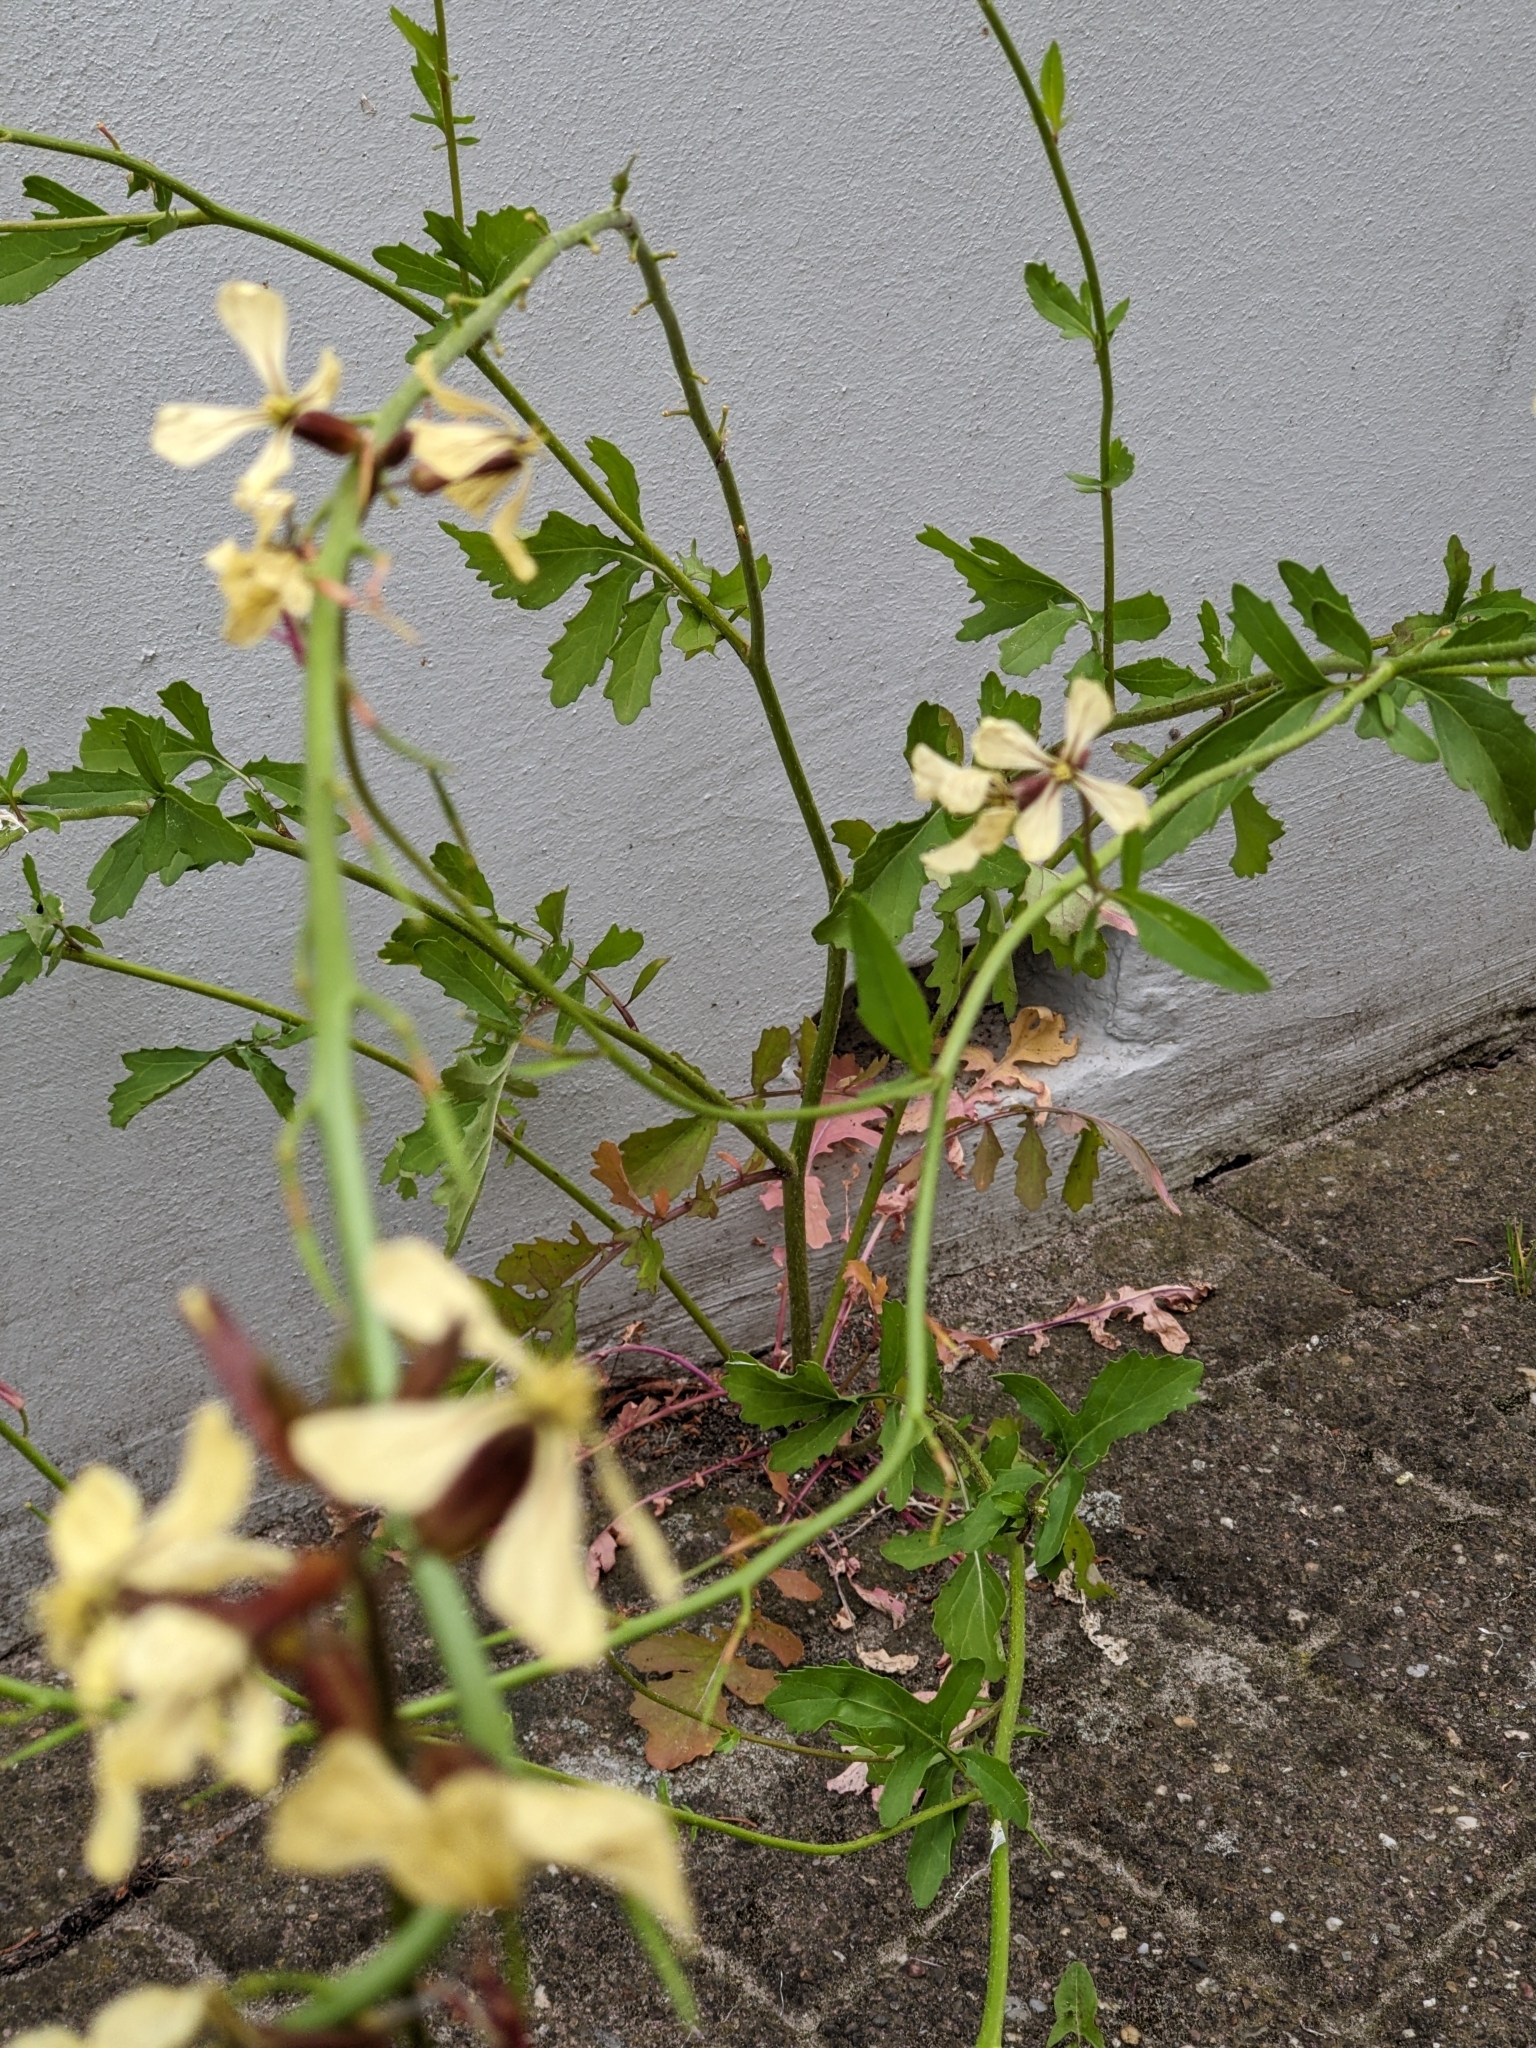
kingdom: Plantae
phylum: Tracheophyta
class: Magnoliopsida
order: Brassicales
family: Brassicaceae
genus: Eruca
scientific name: Eruca vesicaria
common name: Garden rocket
